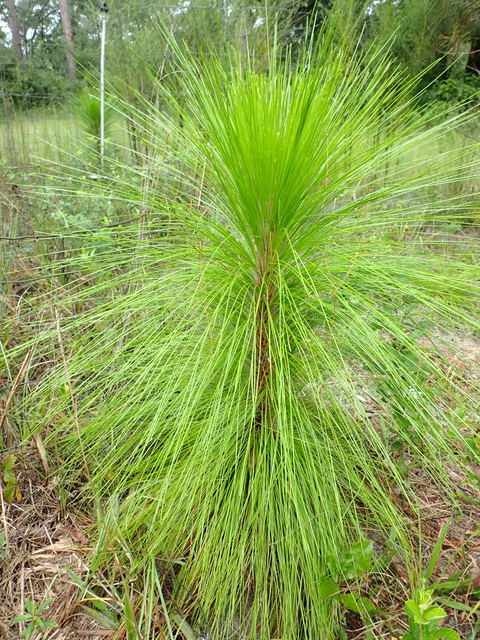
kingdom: Plantae
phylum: Tracheophyta
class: Pinopsida
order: Pinales
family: Pinaceae
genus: Pinus
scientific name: Pinus palustris
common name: Longleaf pine
